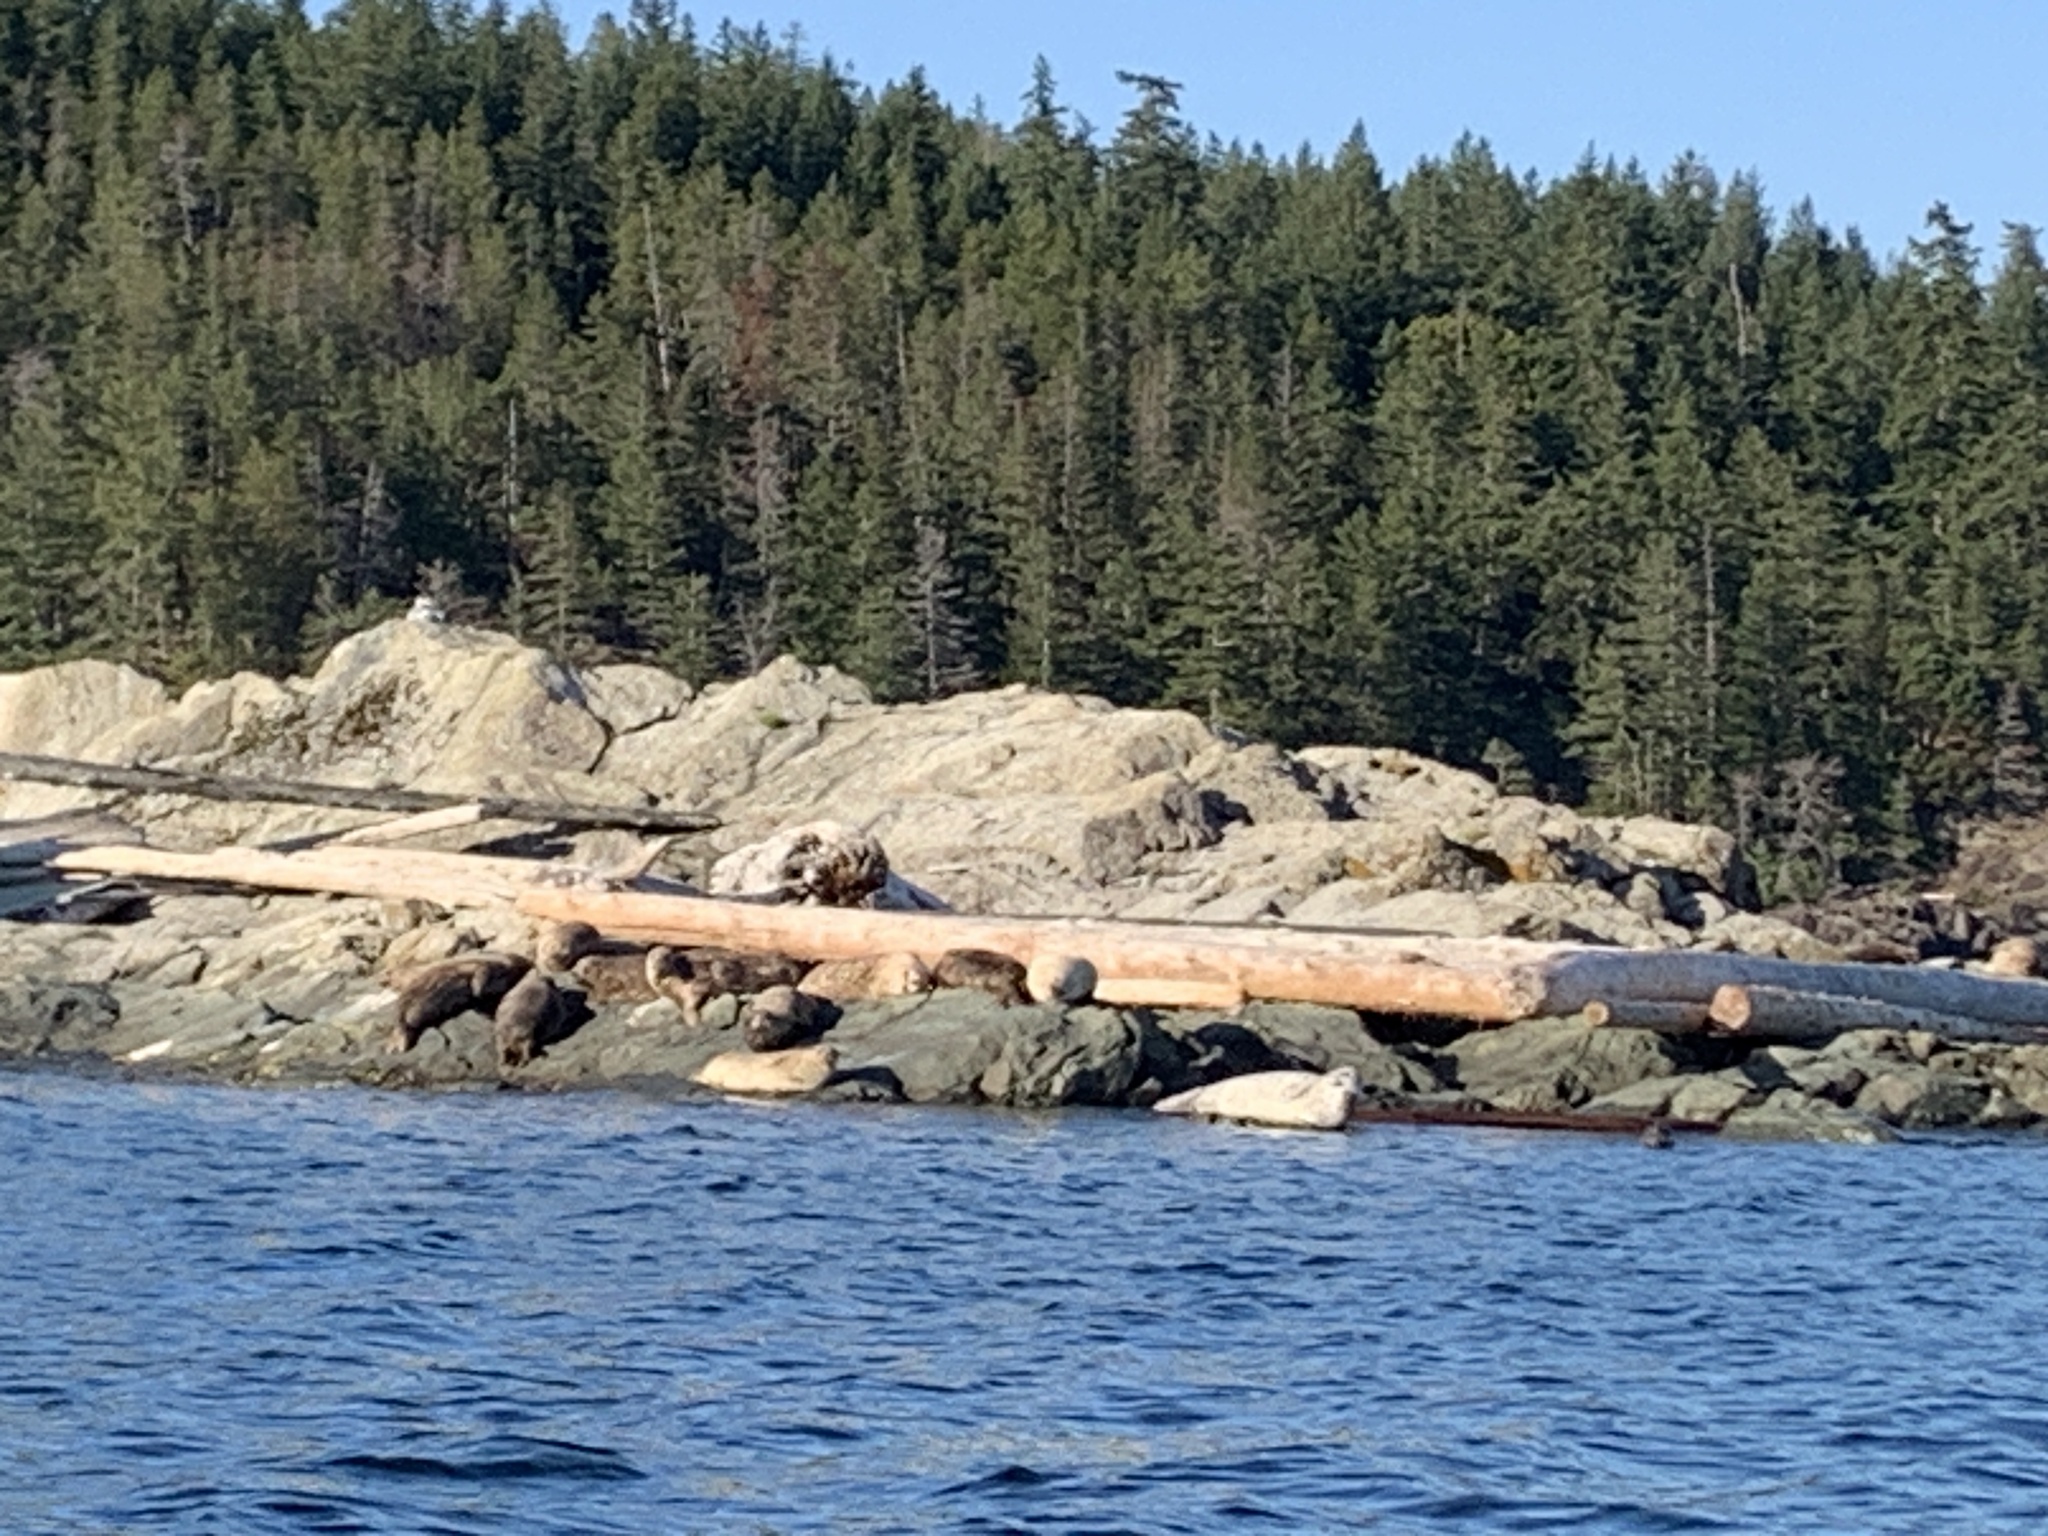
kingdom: Animalia
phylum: Chordata
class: Mammalia
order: Carnivora
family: Phocidae
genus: Phoca
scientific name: Phoca vitulina
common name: Harbor seal
